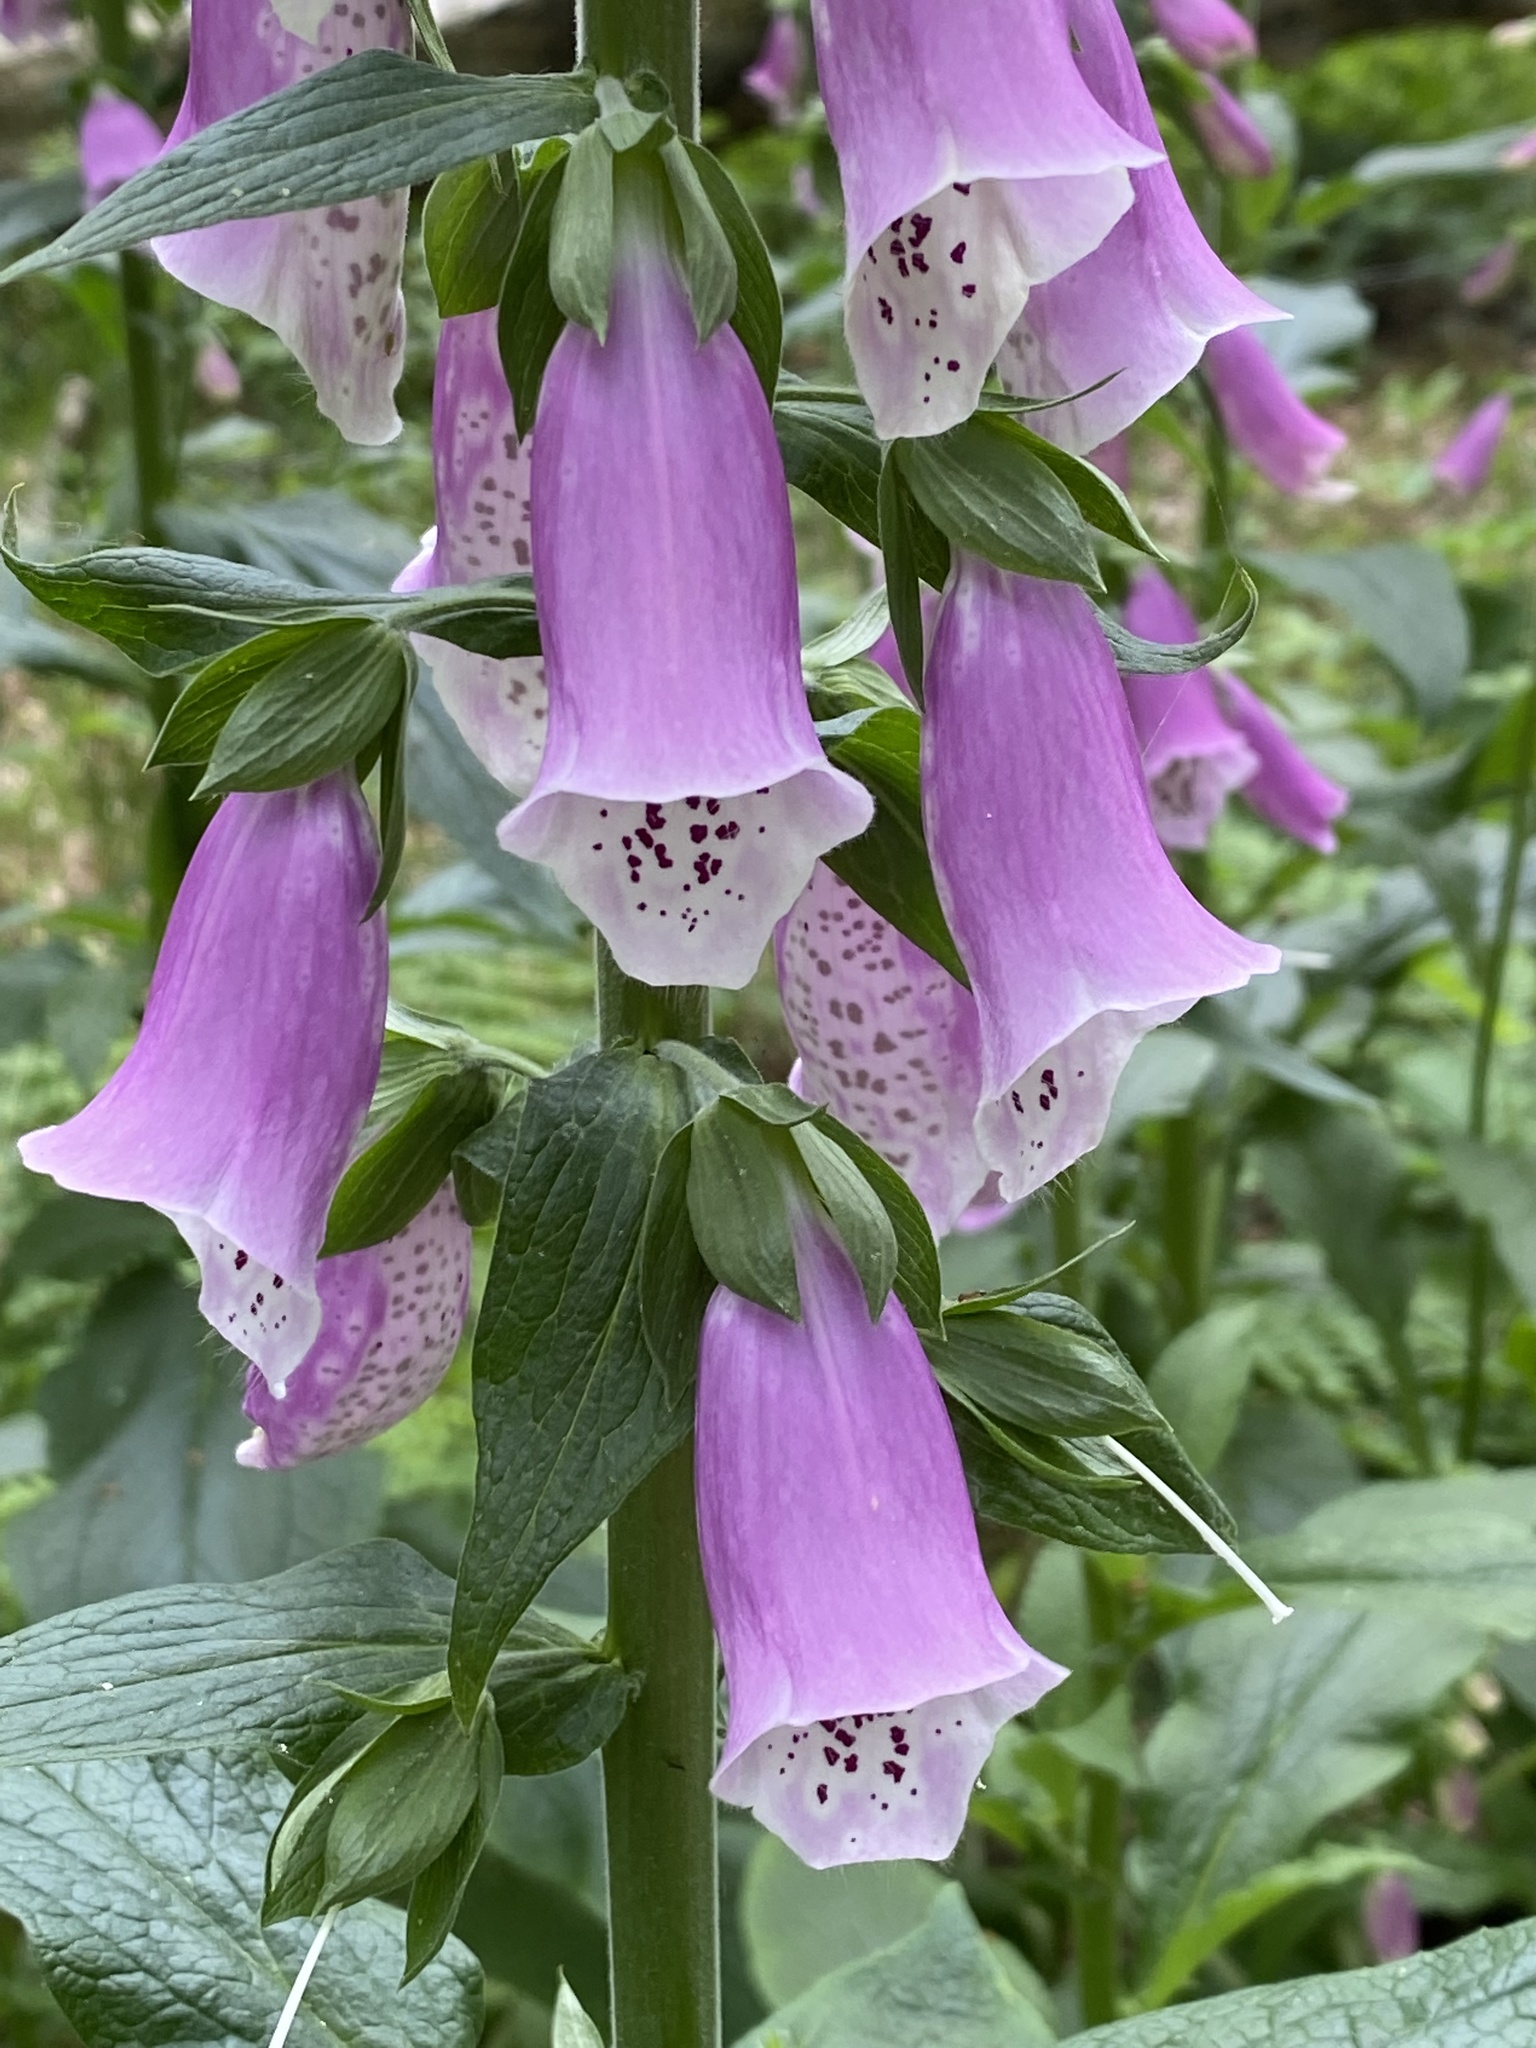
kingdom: Plantae
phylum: Tracheophyta
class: Magnoliopsida
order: Lamiales
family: Plantaginaceae
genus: Digitalis
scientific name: Digitalis purpurea
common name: Foxglove
